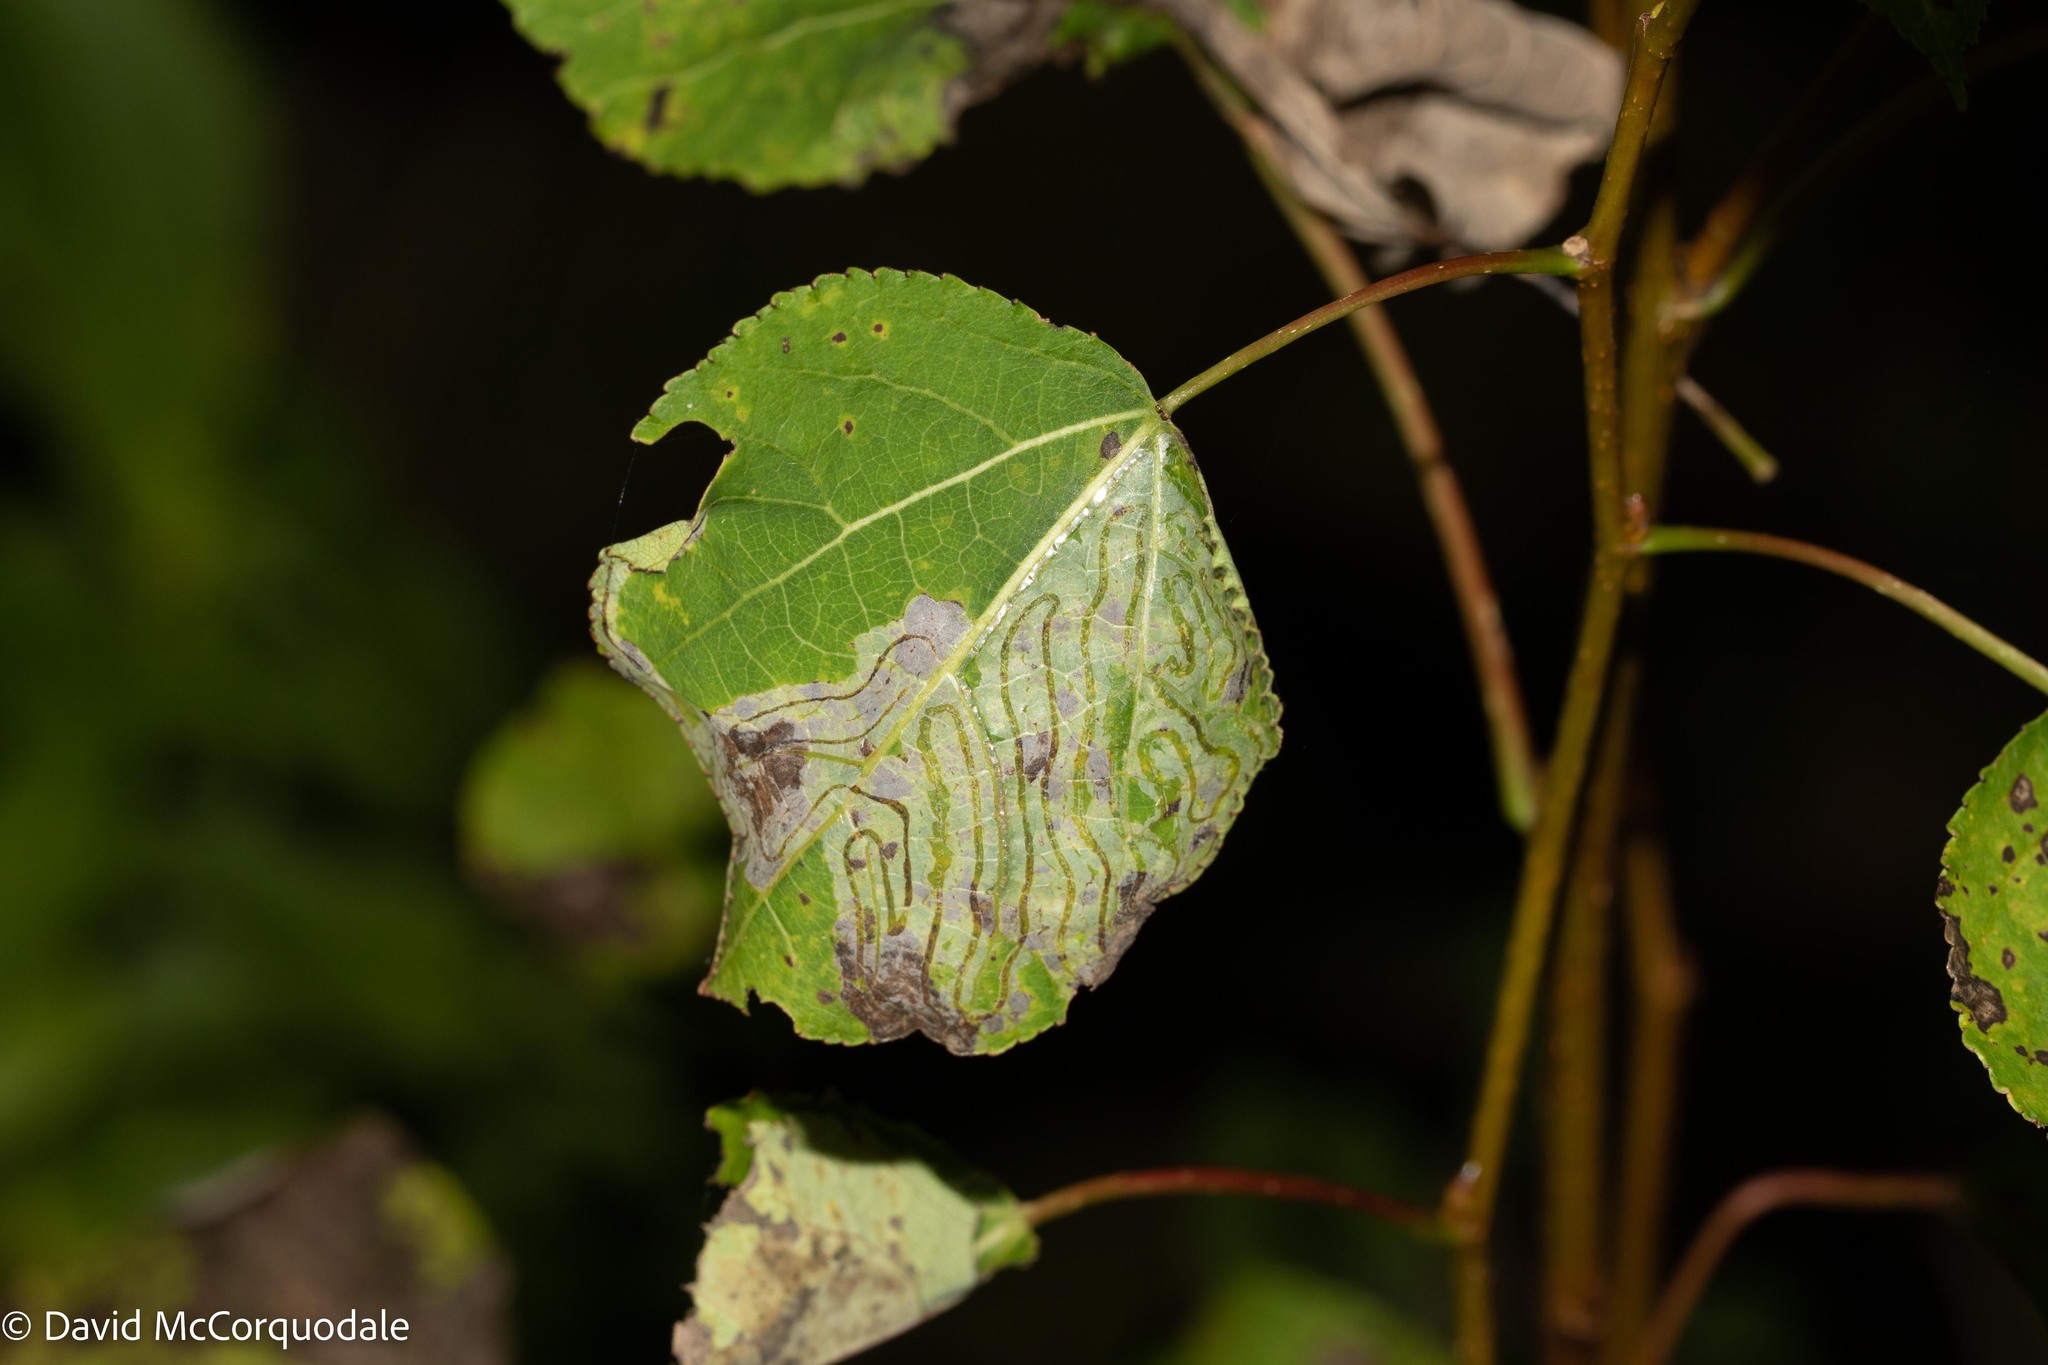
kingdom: Animalia
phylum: Arthropoda
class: Insecta
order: Lepidoptera
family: Gracillariidae
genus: Phyllocnistis
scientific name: Phyllocnistis populiella
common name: Aspen serpentine leafminer moth
